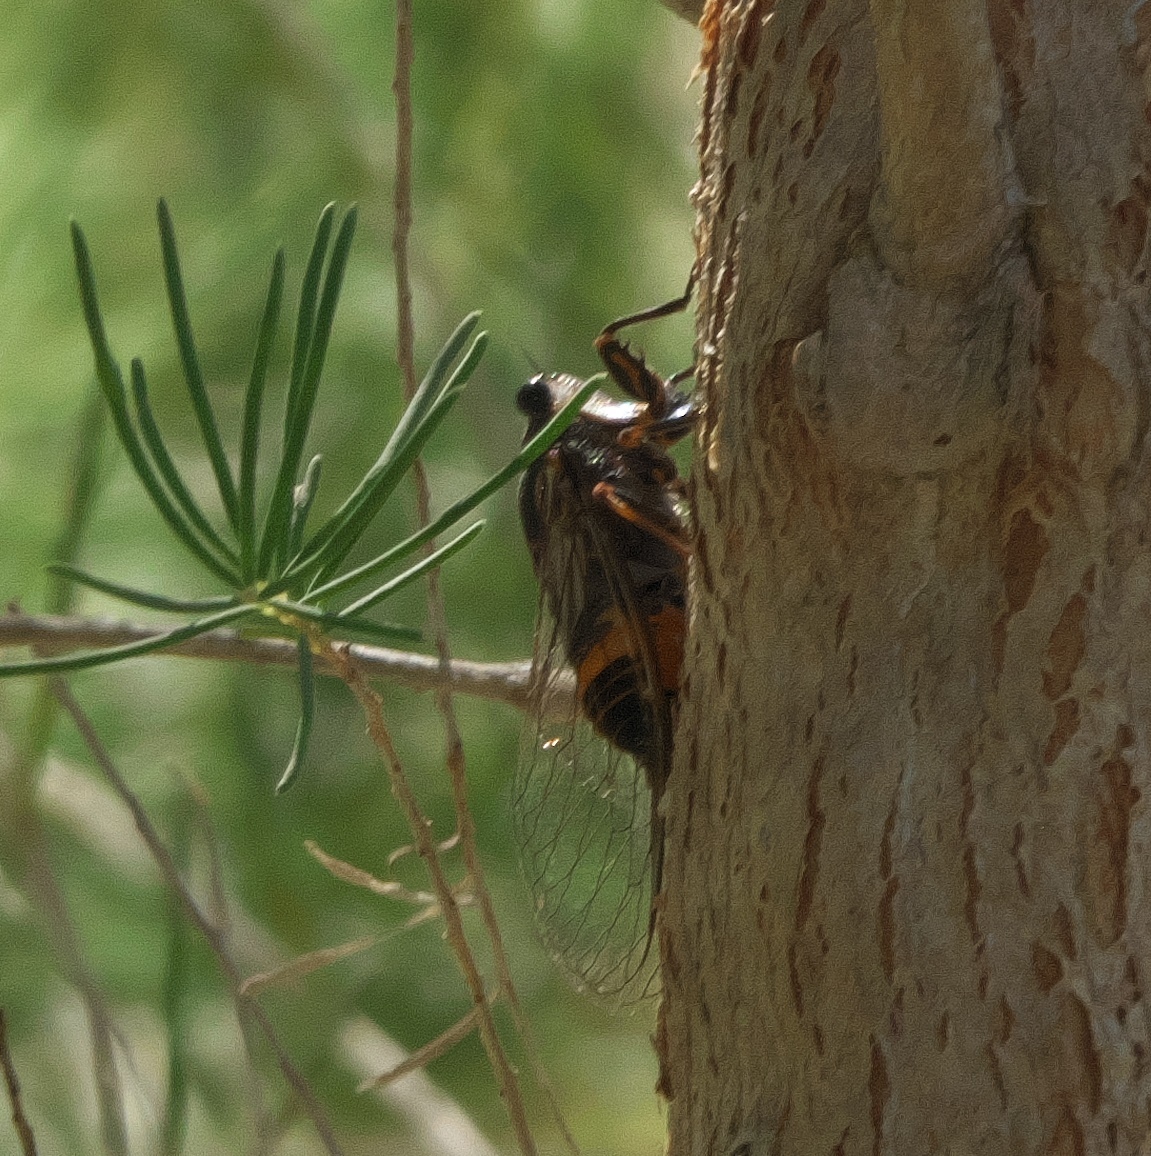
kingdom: Animalia
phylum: Arthropoda
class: Insecta
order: Hemiptera
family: Cicadidae
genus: Pyropsalta
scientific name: Pyropsalta melete
